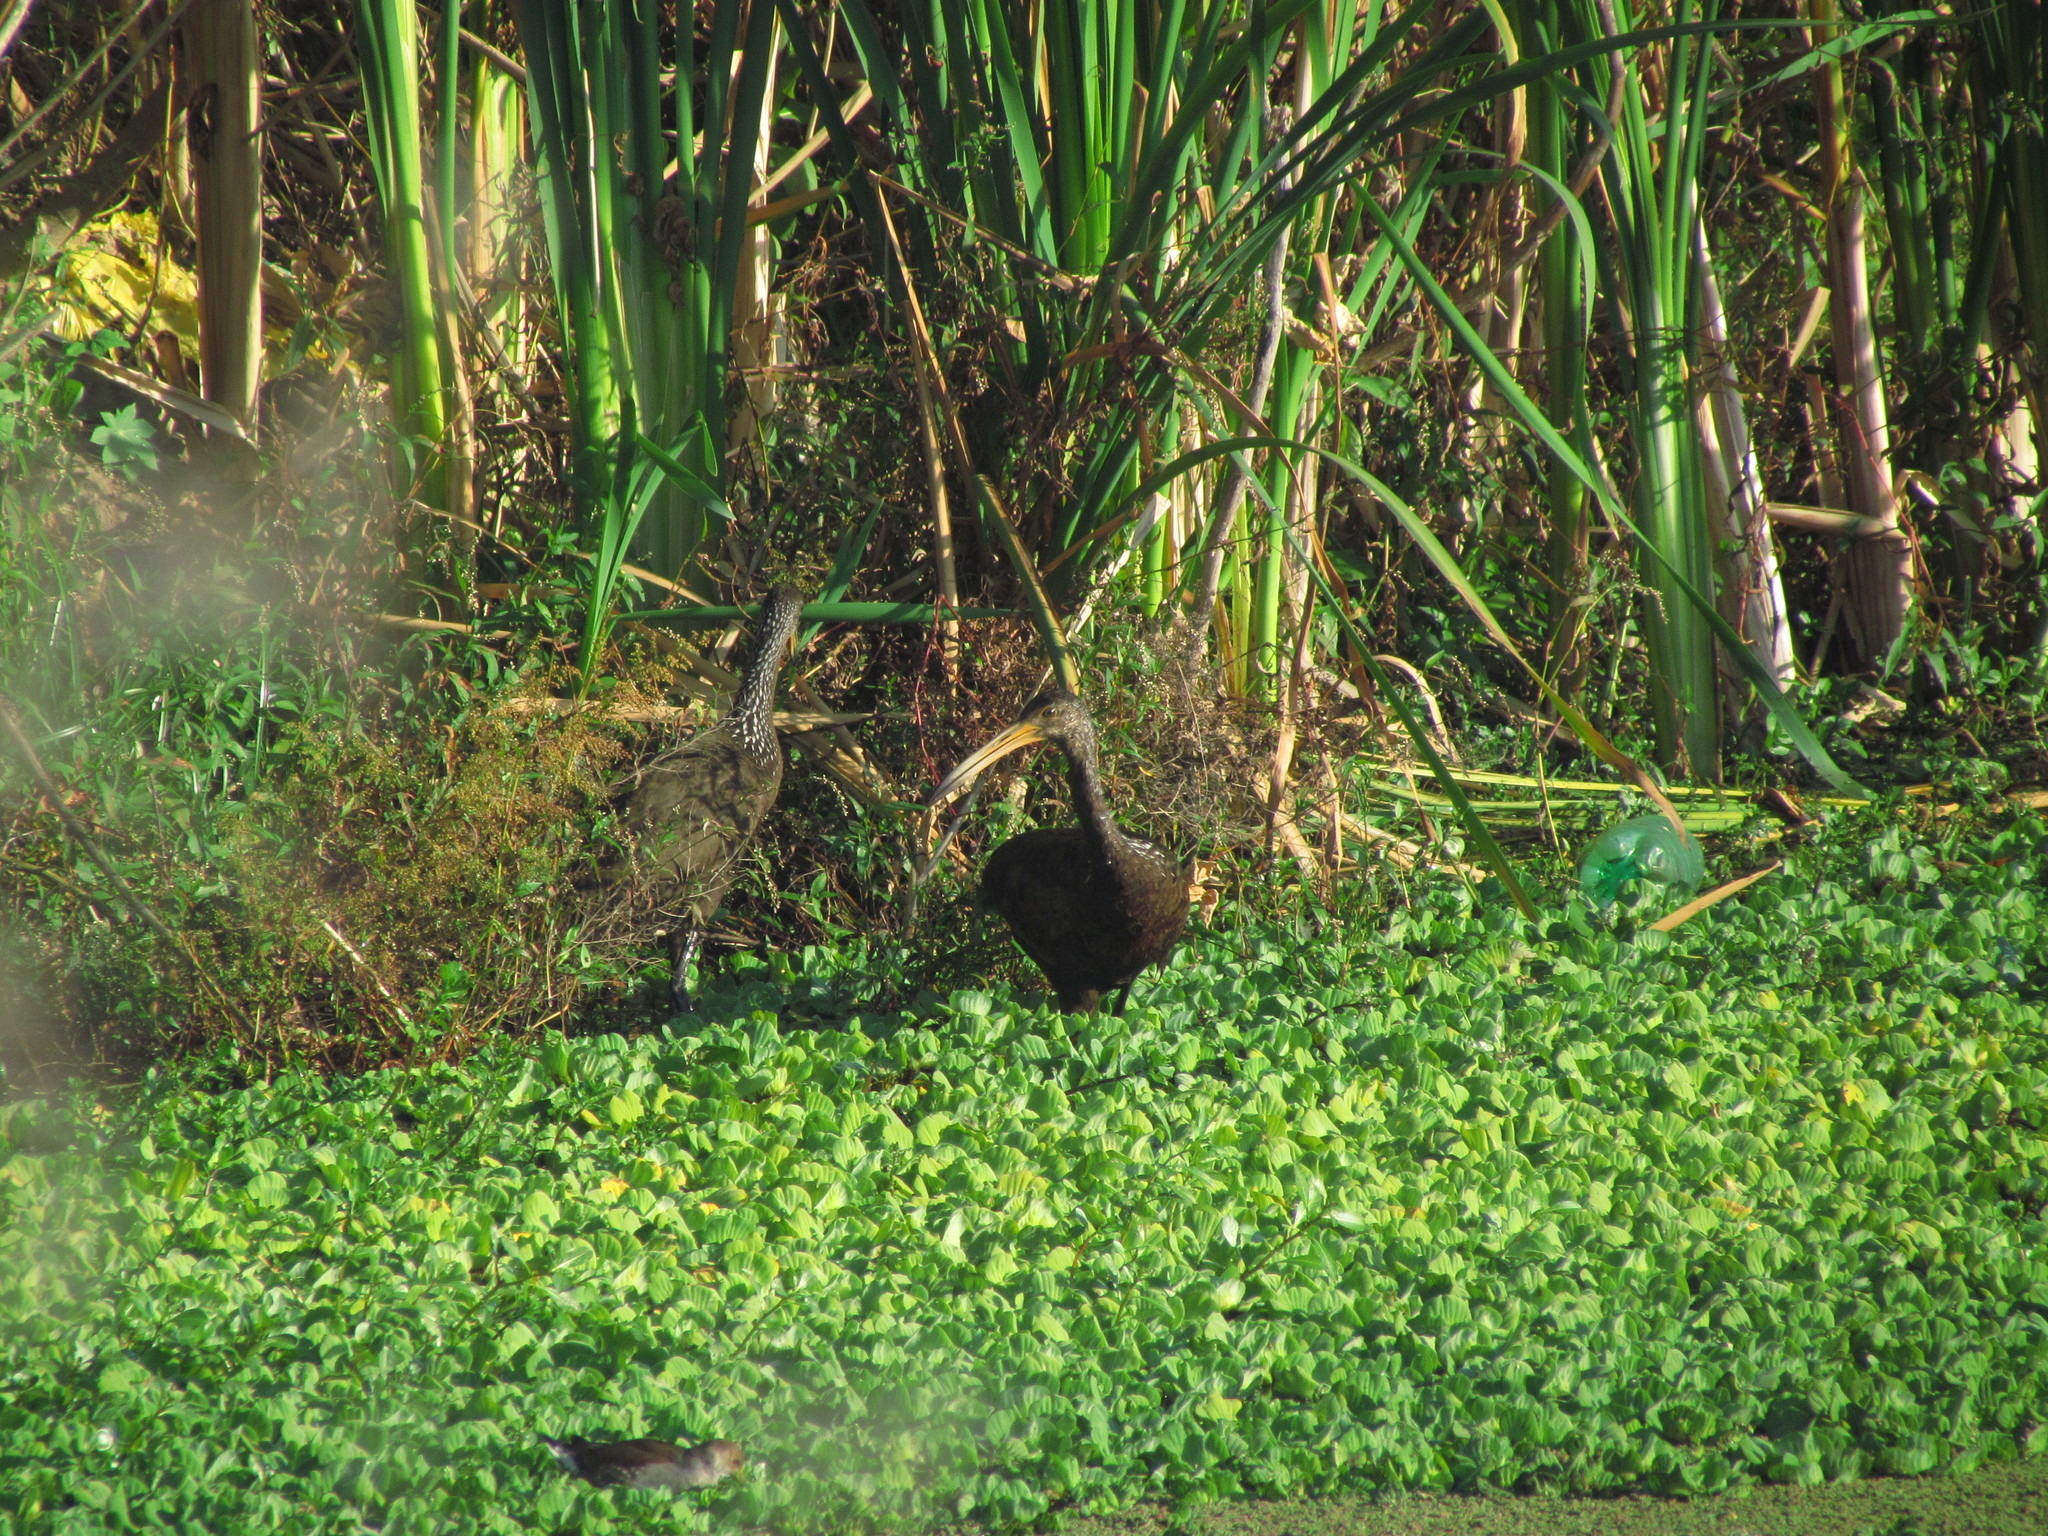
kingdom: Animalia
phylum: Chordata
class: Aves
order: Gruiformes
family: Aramidae
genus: Aramus
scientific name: Aramus guarauna
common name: Limpkin
